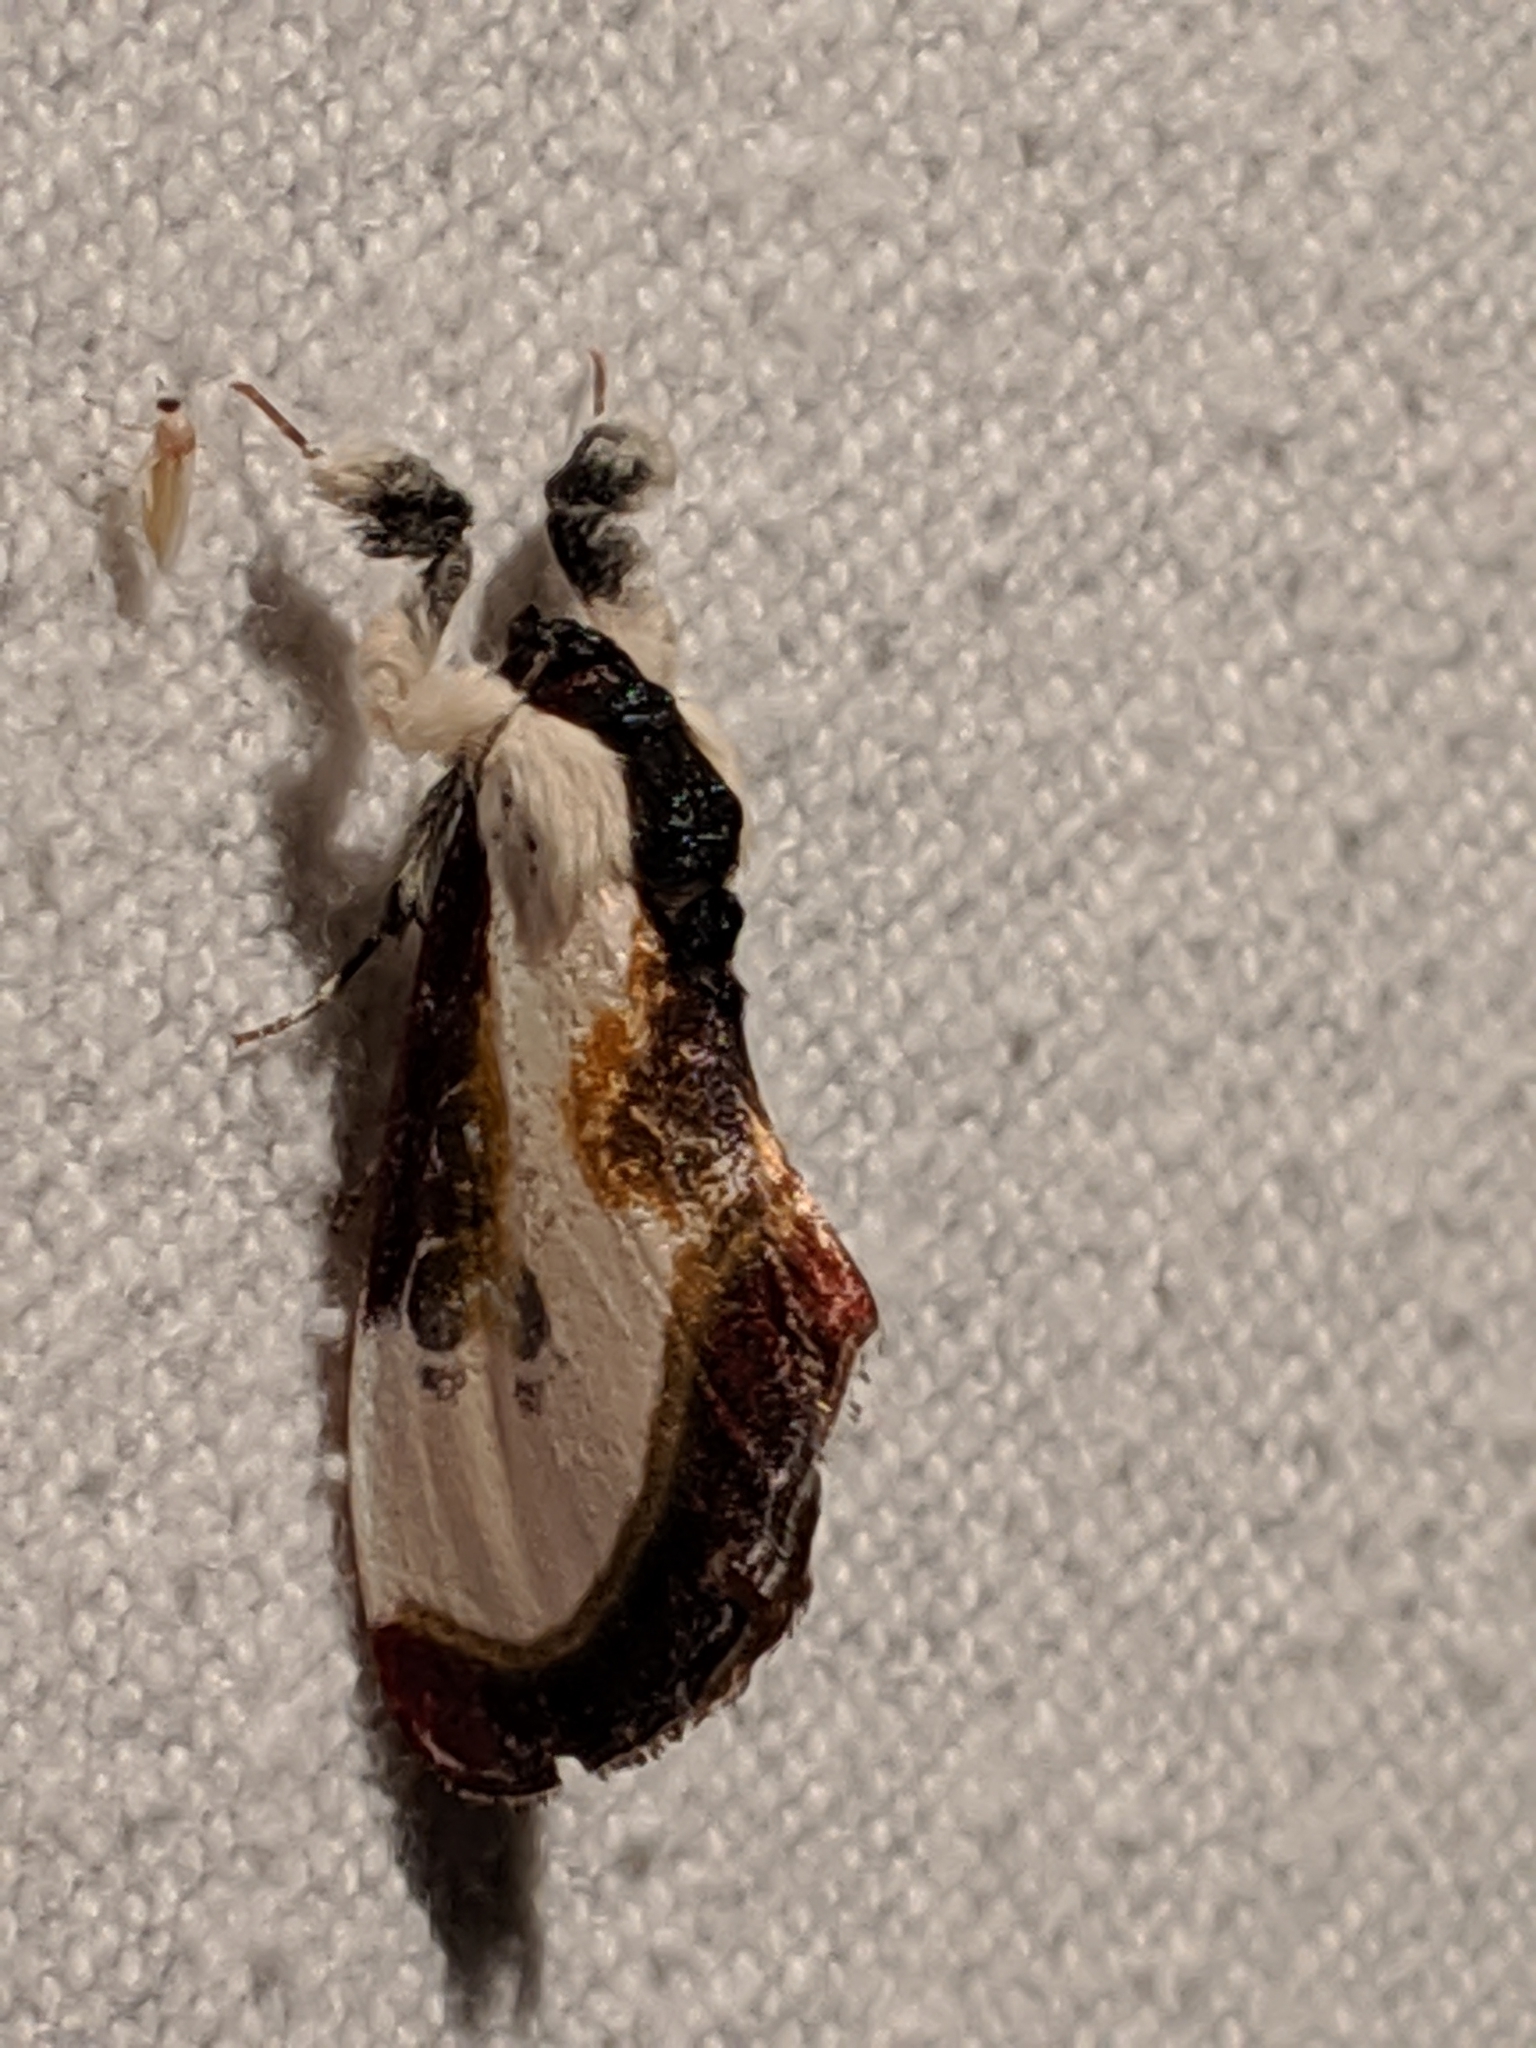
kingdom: Animalia
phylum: Arthropoda
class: Insecta
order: Lepidoptera
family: Noctuidae
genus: Eudryas
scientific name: Eudryas grata
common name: Beautiful wood-nymph
